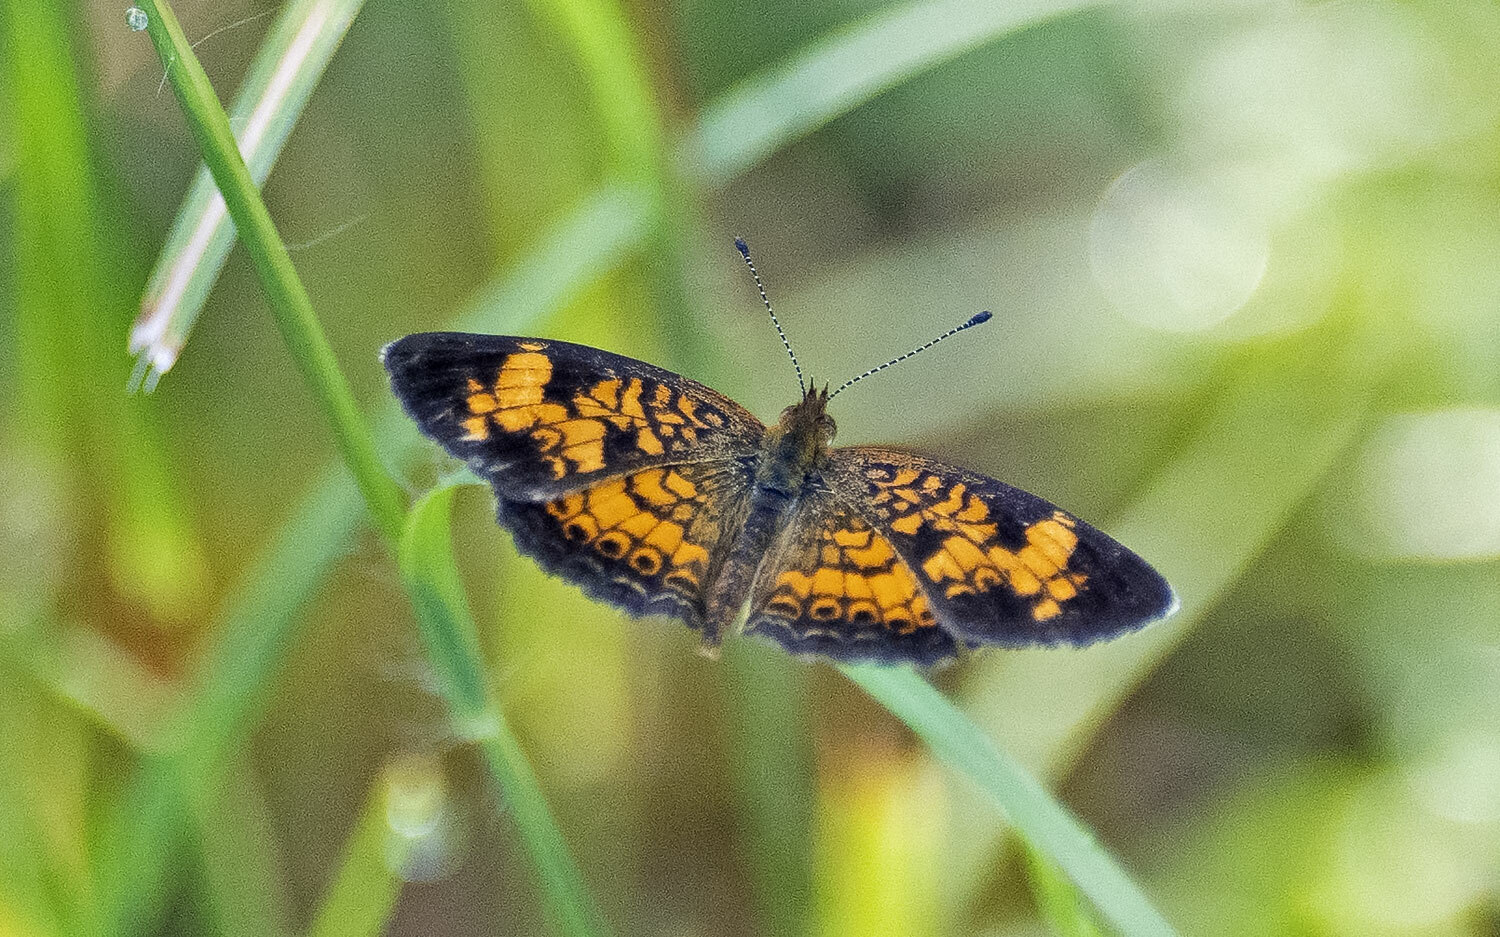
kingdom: Animalia
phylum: Arthropoda
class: Insecta
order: Lepidoptera
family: Nymphalidae
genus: Phyciodes
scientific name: Phyciodes tharos
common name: Pearl crescent
